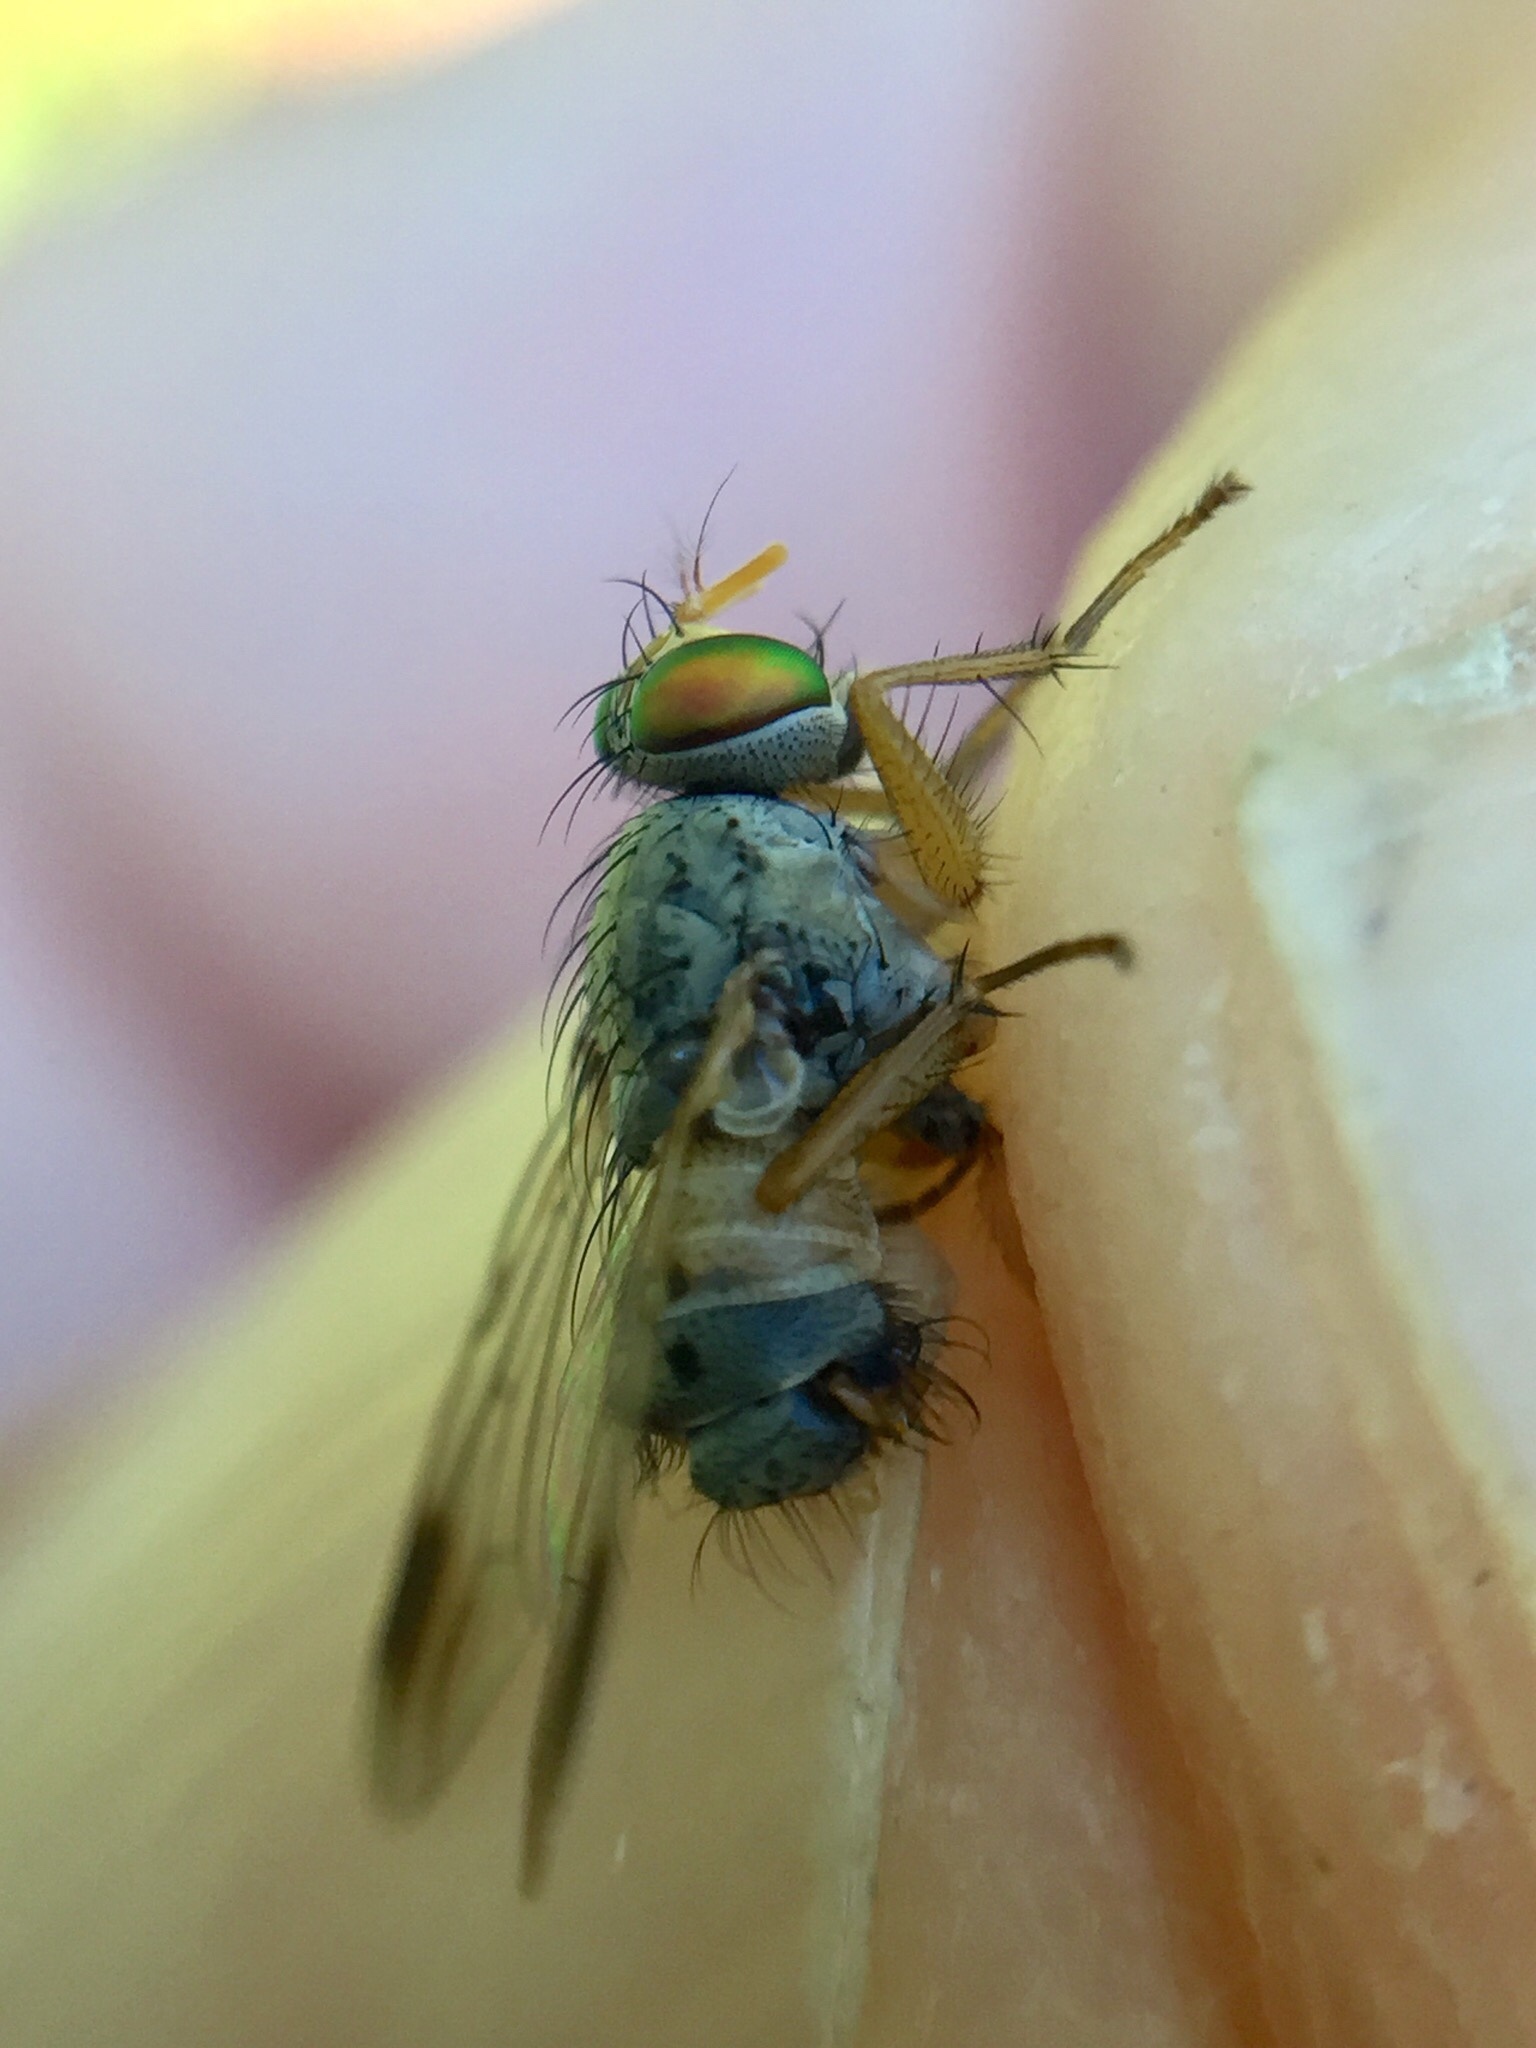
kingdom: Animalia
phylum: Arthropoda
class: Insecta
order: Diptera
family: Muscidae
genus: Pygophora
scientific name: Pygophora apicalis
